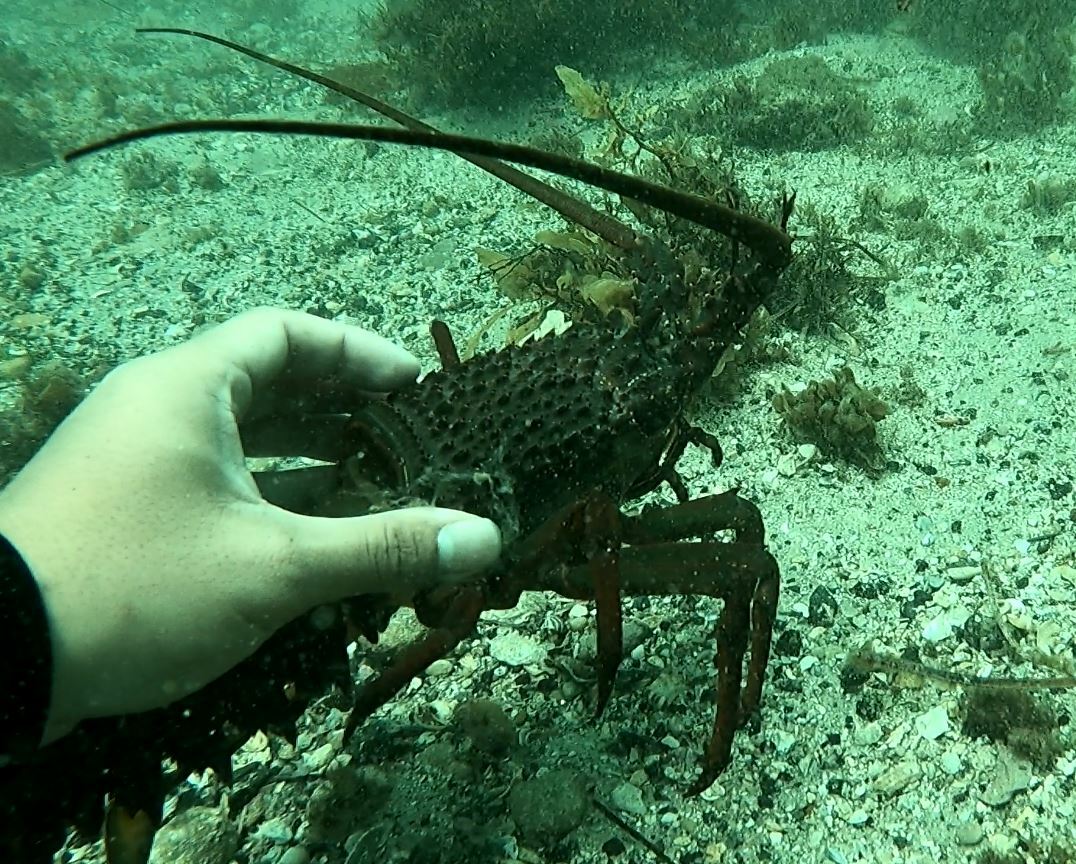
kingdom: Animalia
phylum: Arthropoda
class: Malacostraca
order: Decapoda
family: Palinuridae
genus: Sagmariasus
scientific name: Sagmariasus verreauxi
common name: Green rock lobster
